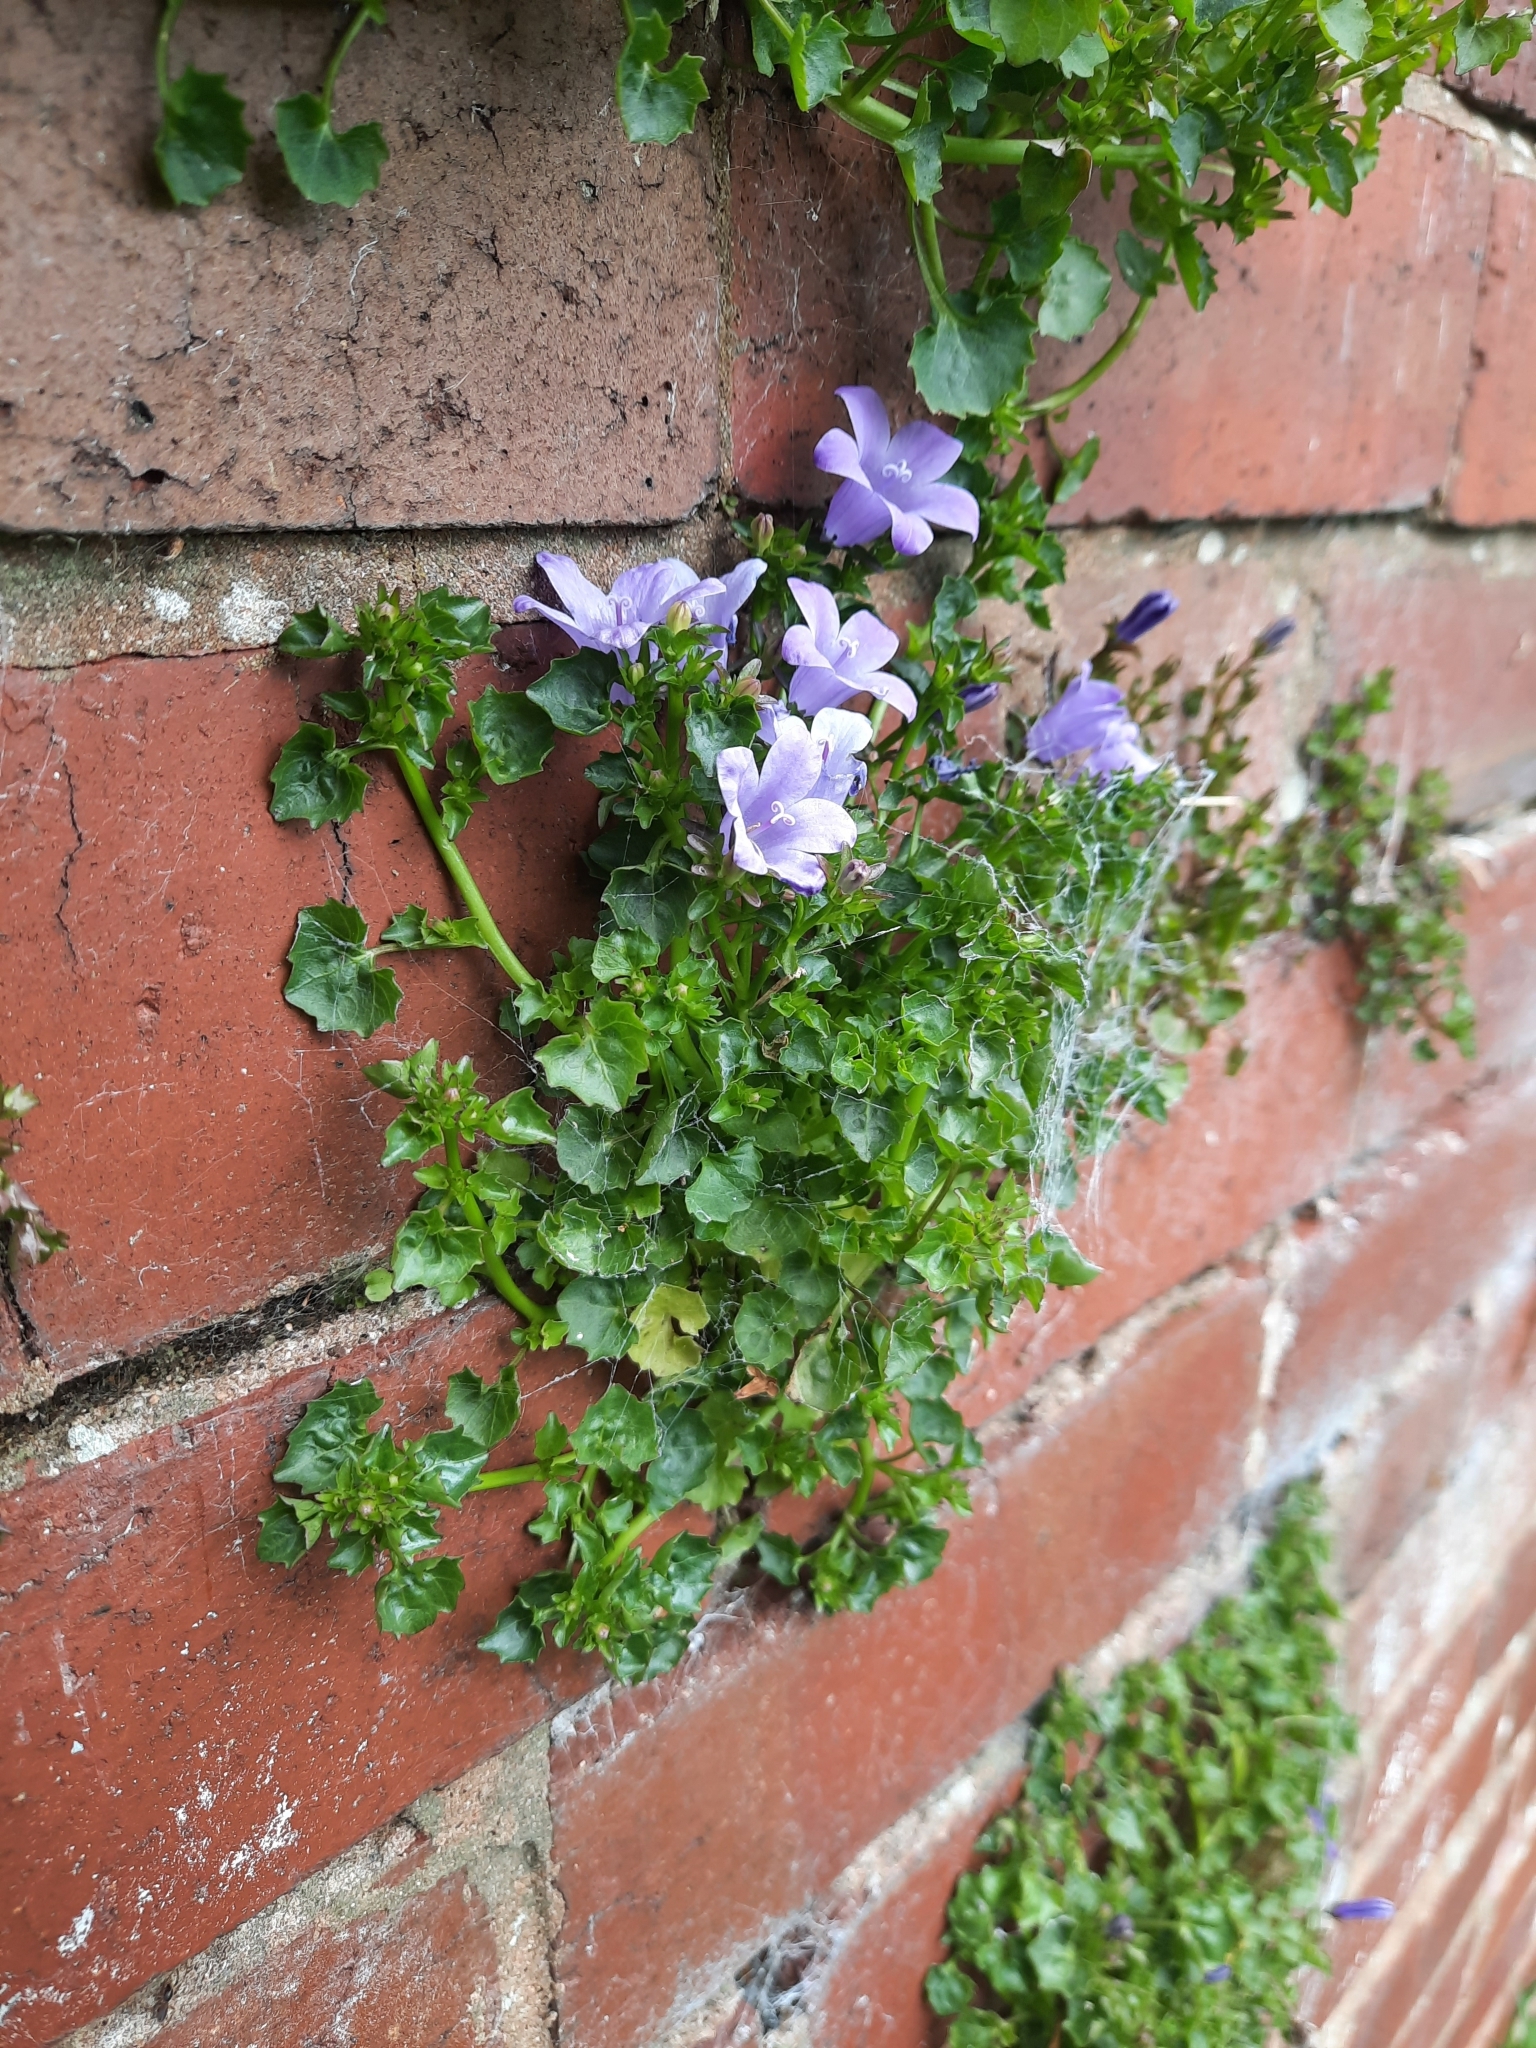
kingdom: Plantae
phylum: Tracheophyta
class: Magnoliopsida
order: Asterales
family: Campanulaceae
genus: Campanula
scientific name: Campanula portenschlagiana
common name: Adria bellflower
